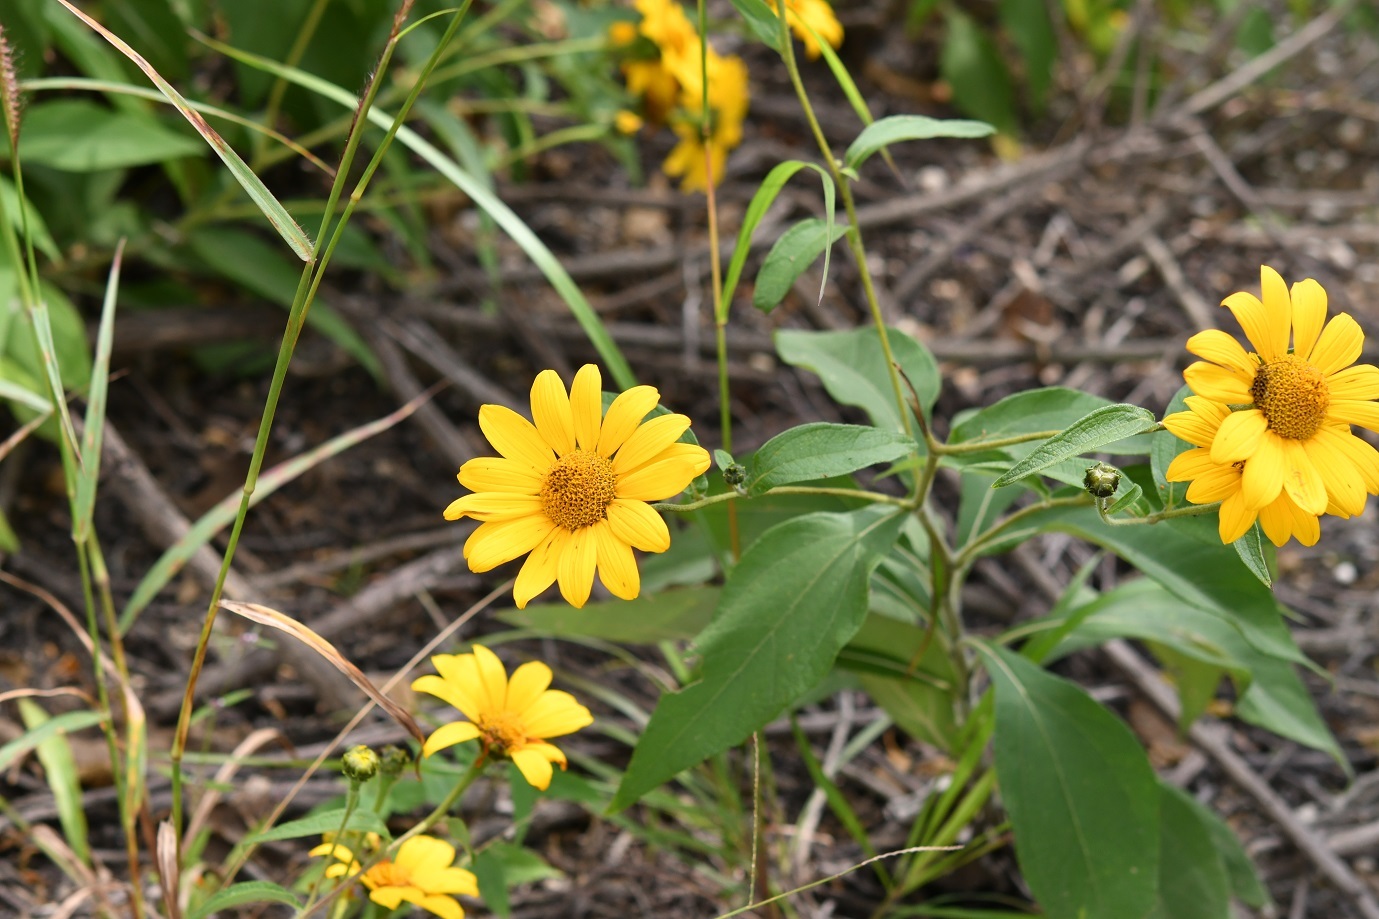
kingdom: Plantae
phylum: Tracheophyta
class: Magnoliopsida
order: Asterales
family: Asteraceae
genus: Tithonia
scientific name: Tithonia longiradiata
